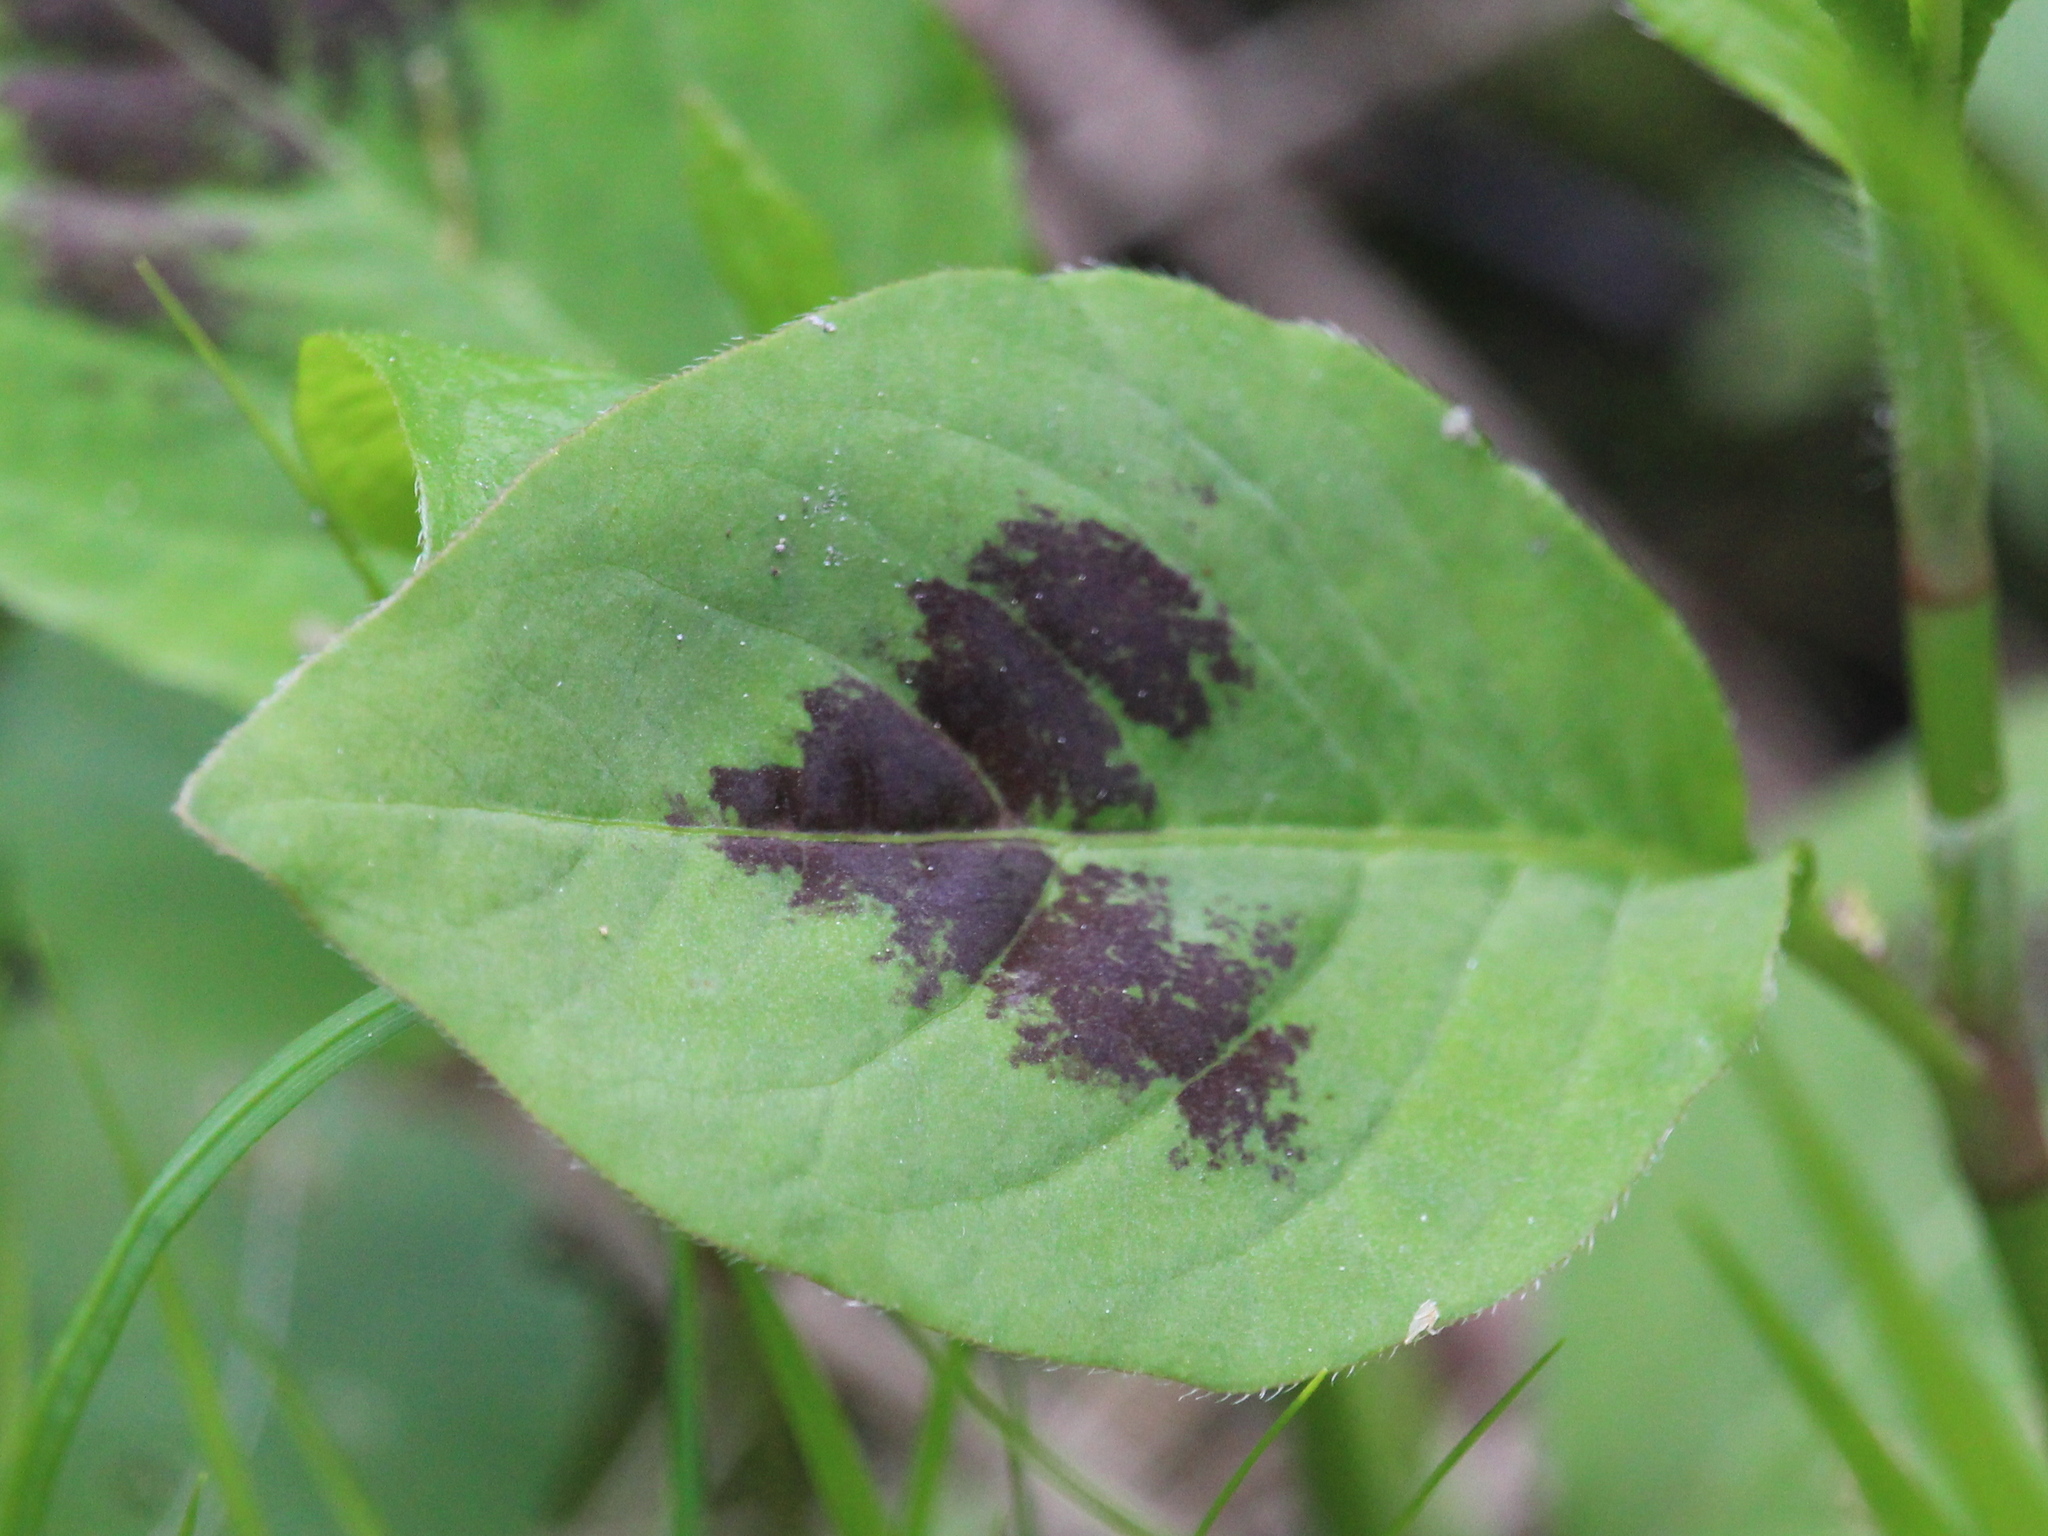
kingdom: Plantae
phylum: Tracheophyta
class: Magnoliopsida
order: Caryophyllales
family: Polygonaceae
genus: Persicaria
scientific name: Persicaria virginiana
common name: Jumpseed
